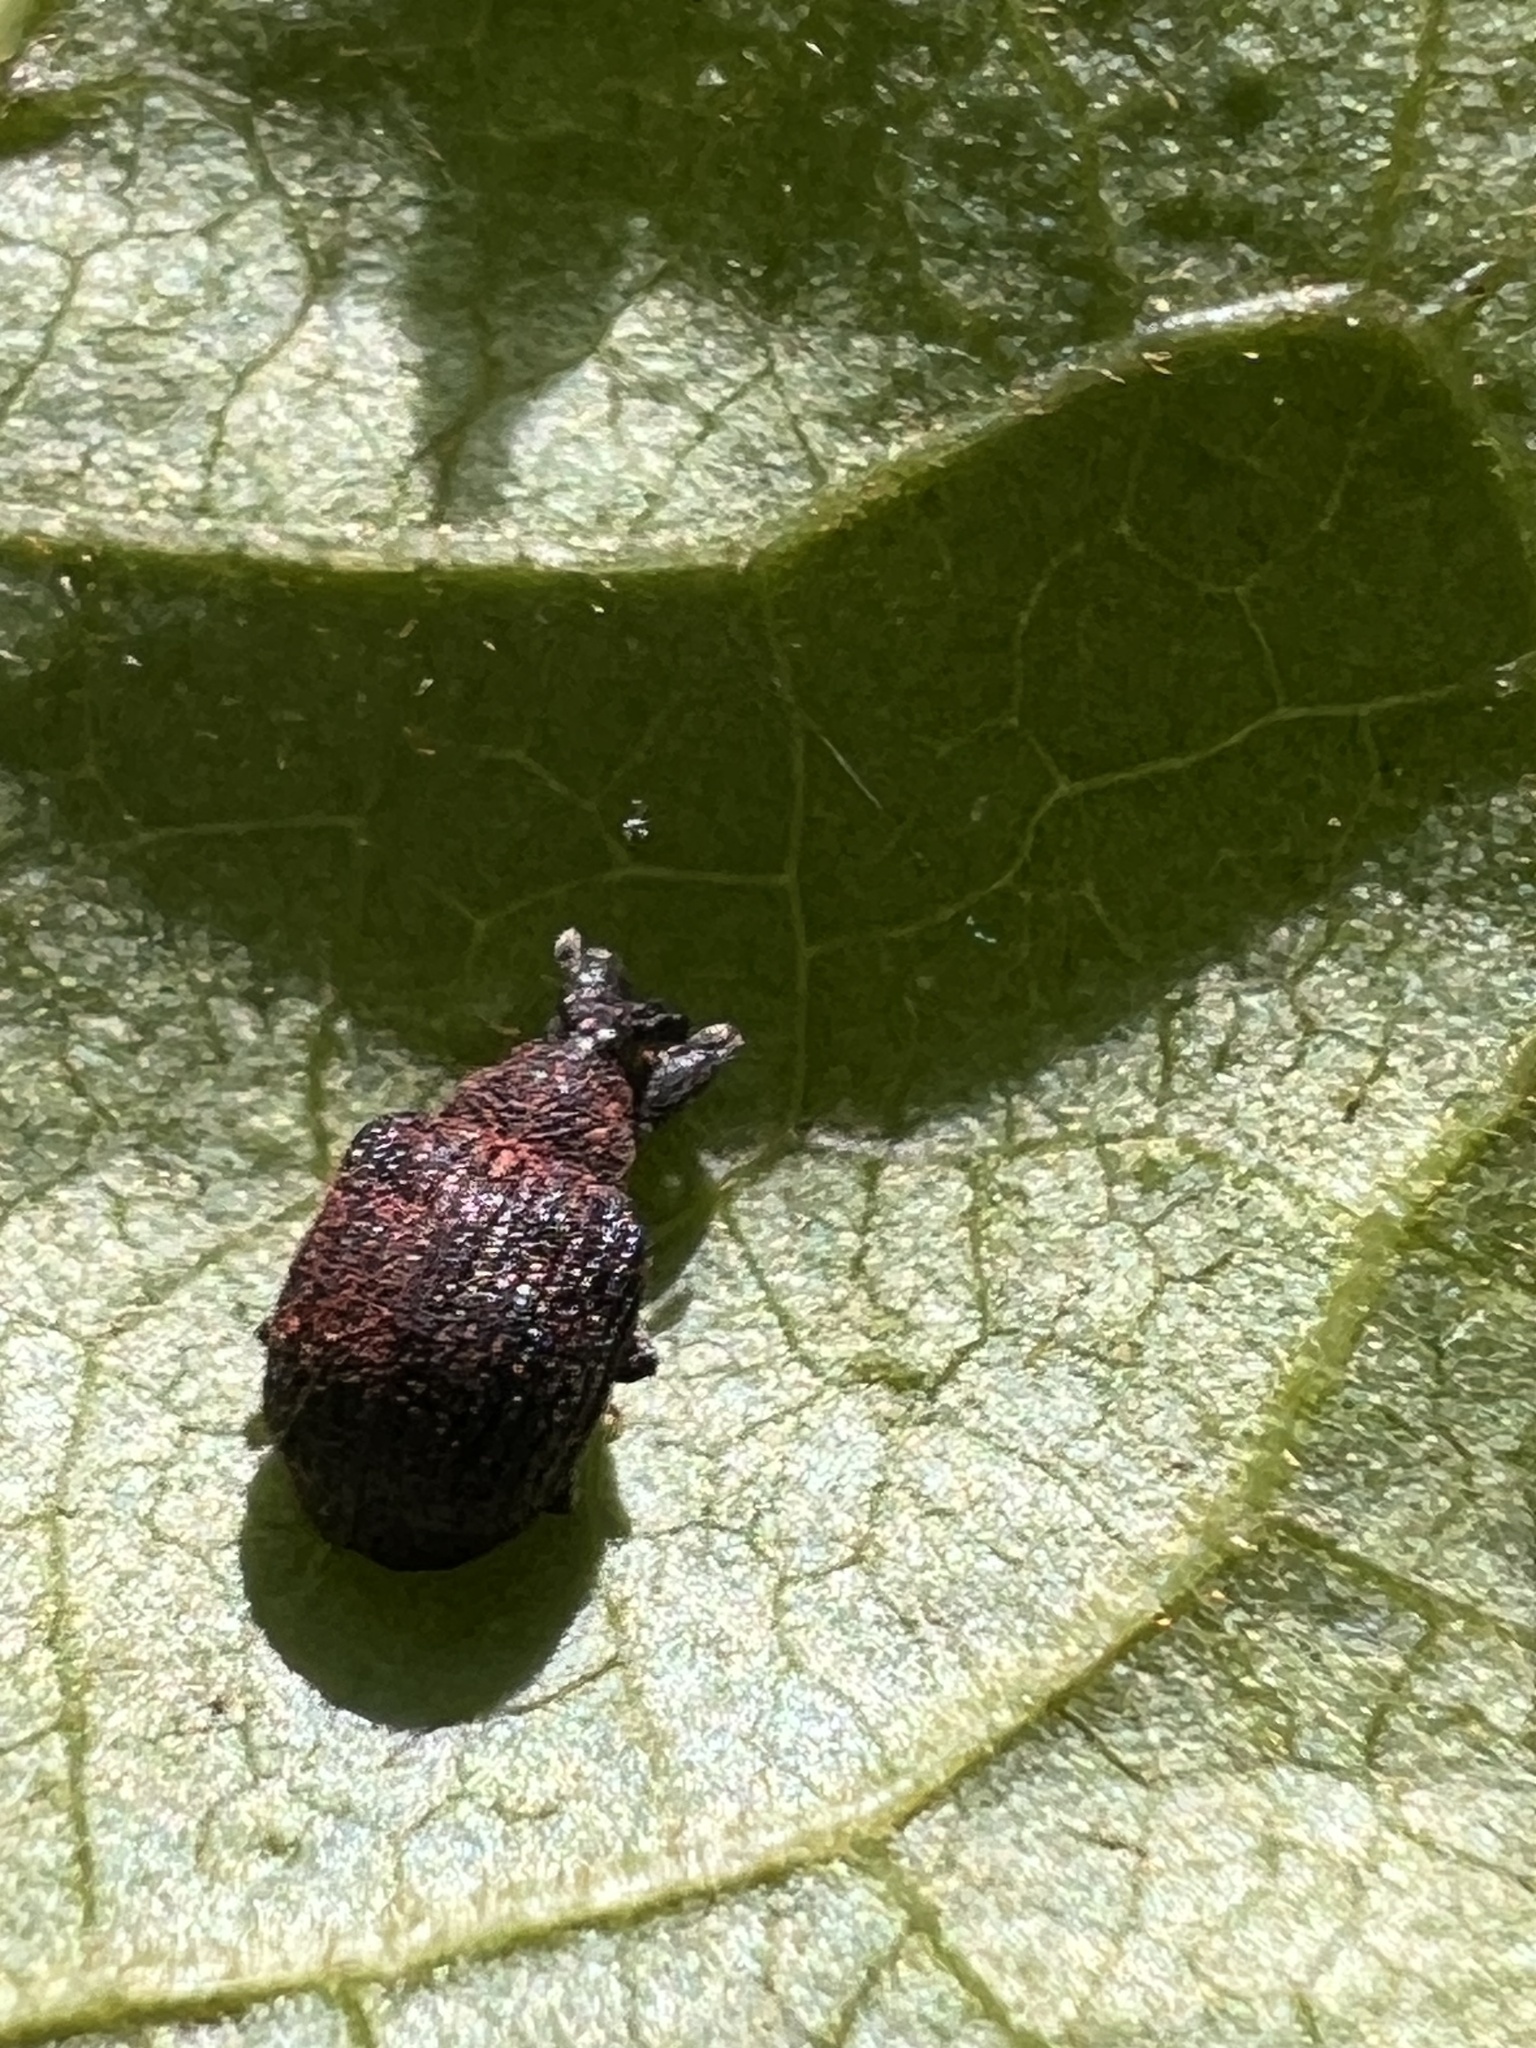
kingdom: Animalia
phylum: Arthropoda
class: Insecta
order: Coleoptera
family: Curculionidae
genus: Odontopus
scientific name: Odontopus calceatus
